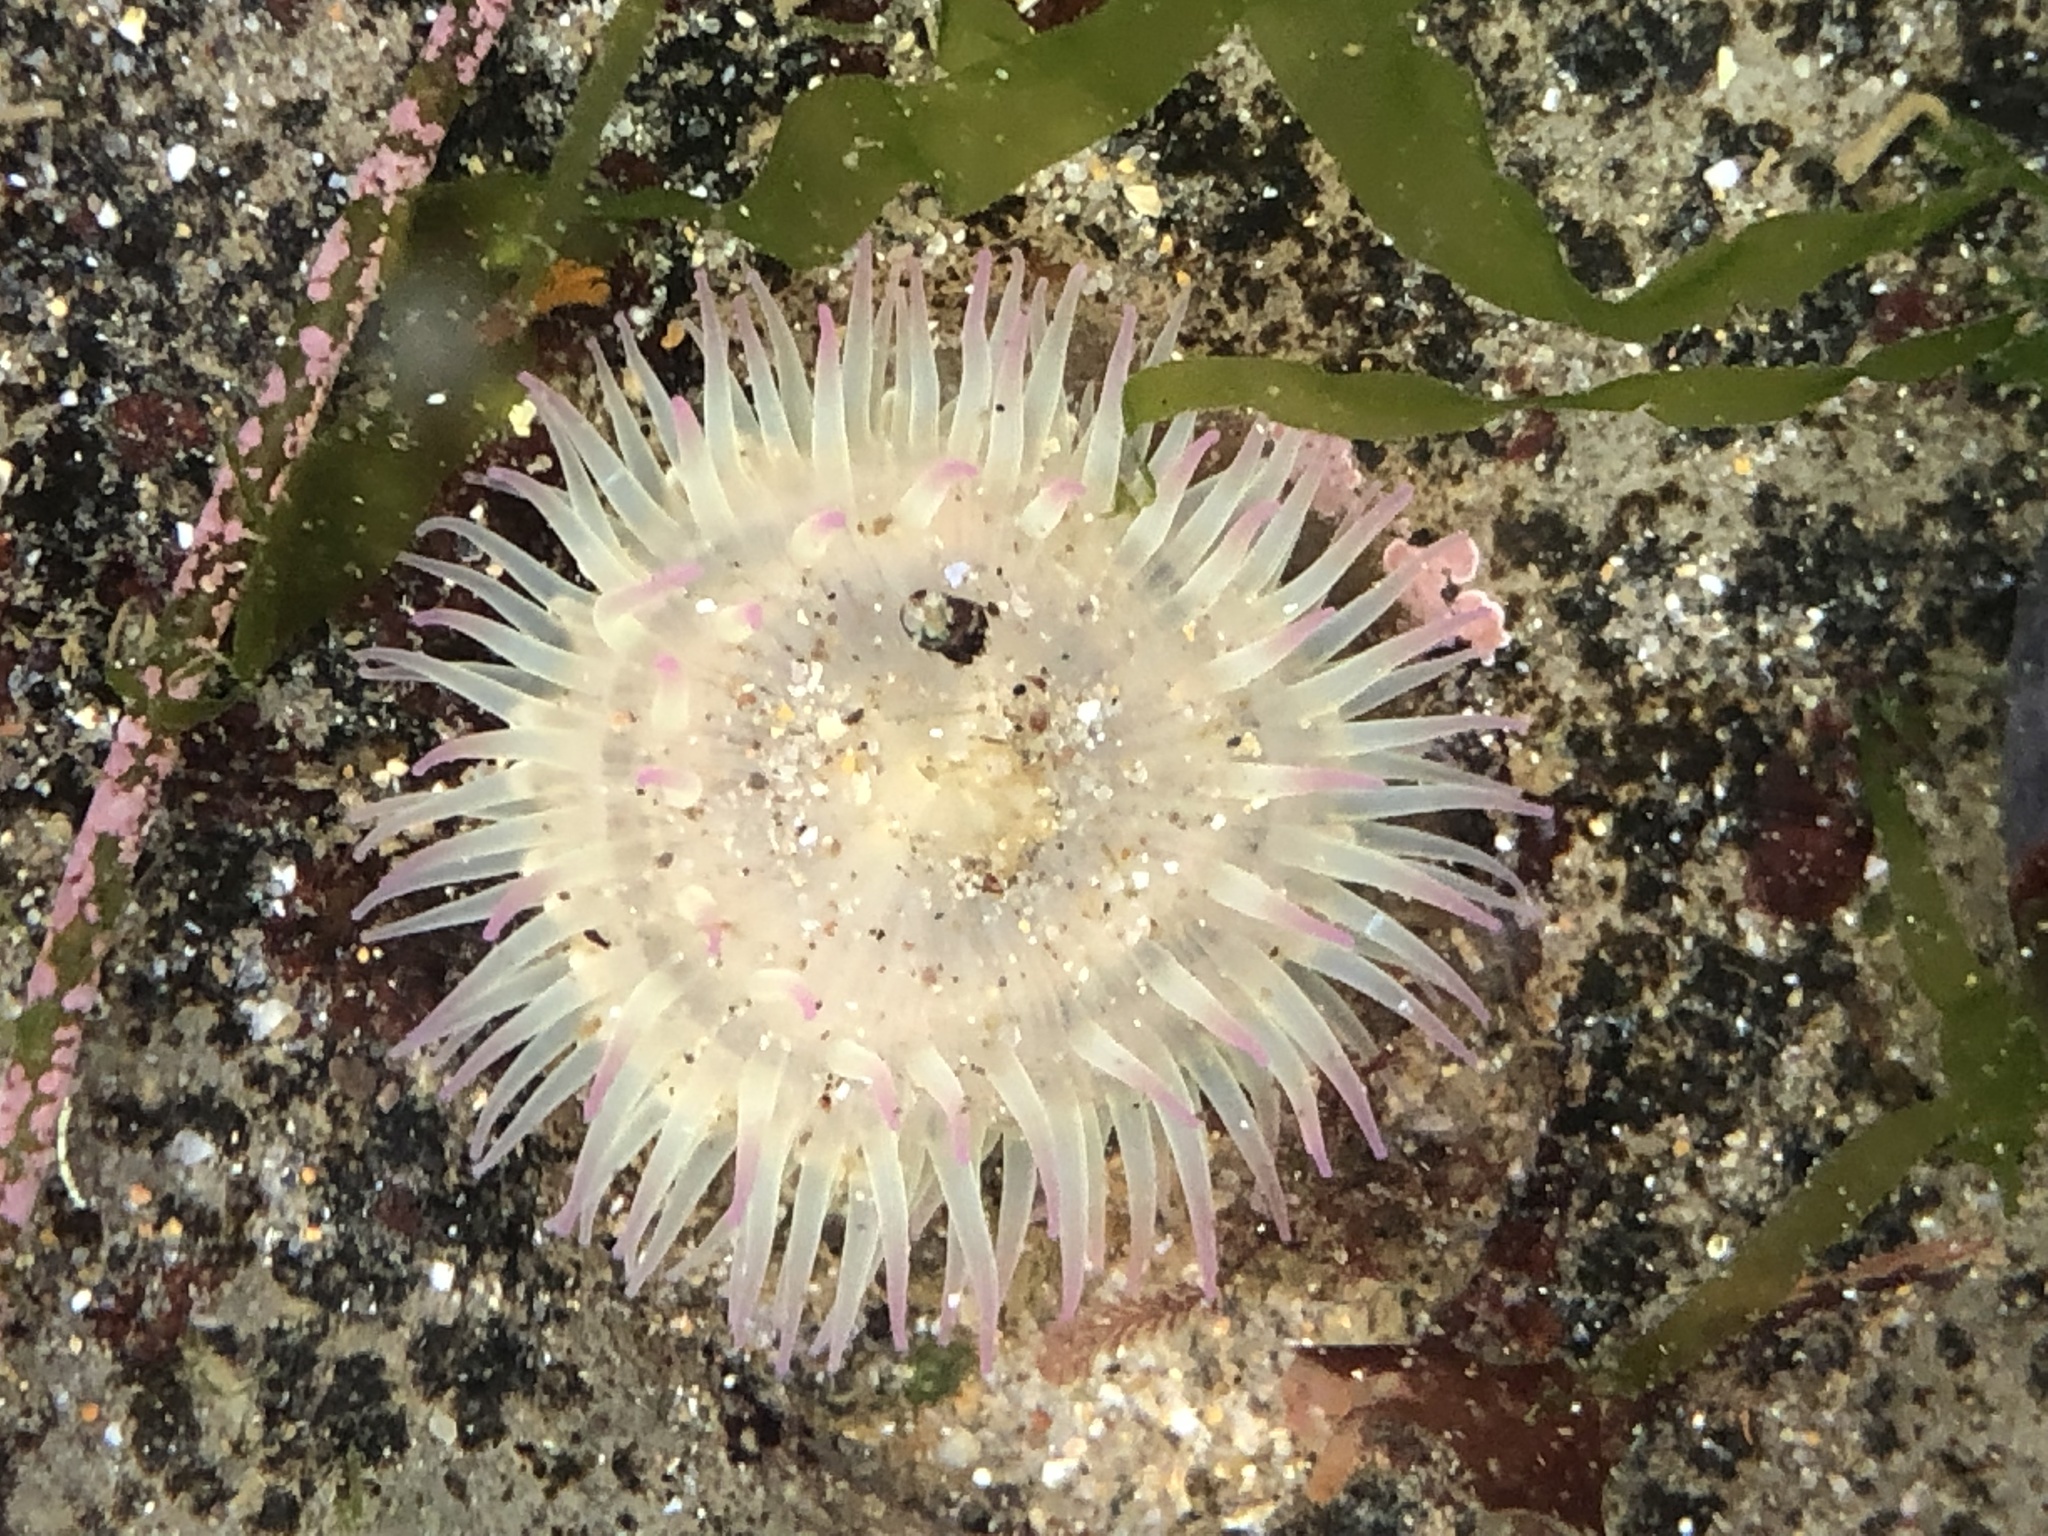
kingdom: Animalia
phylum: Cnidaria
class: Anthozoa
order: Actiniaria
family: Actiniidae
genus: Anthopleura
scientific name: Anthopleura elegantissima
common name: Clonal anemone
